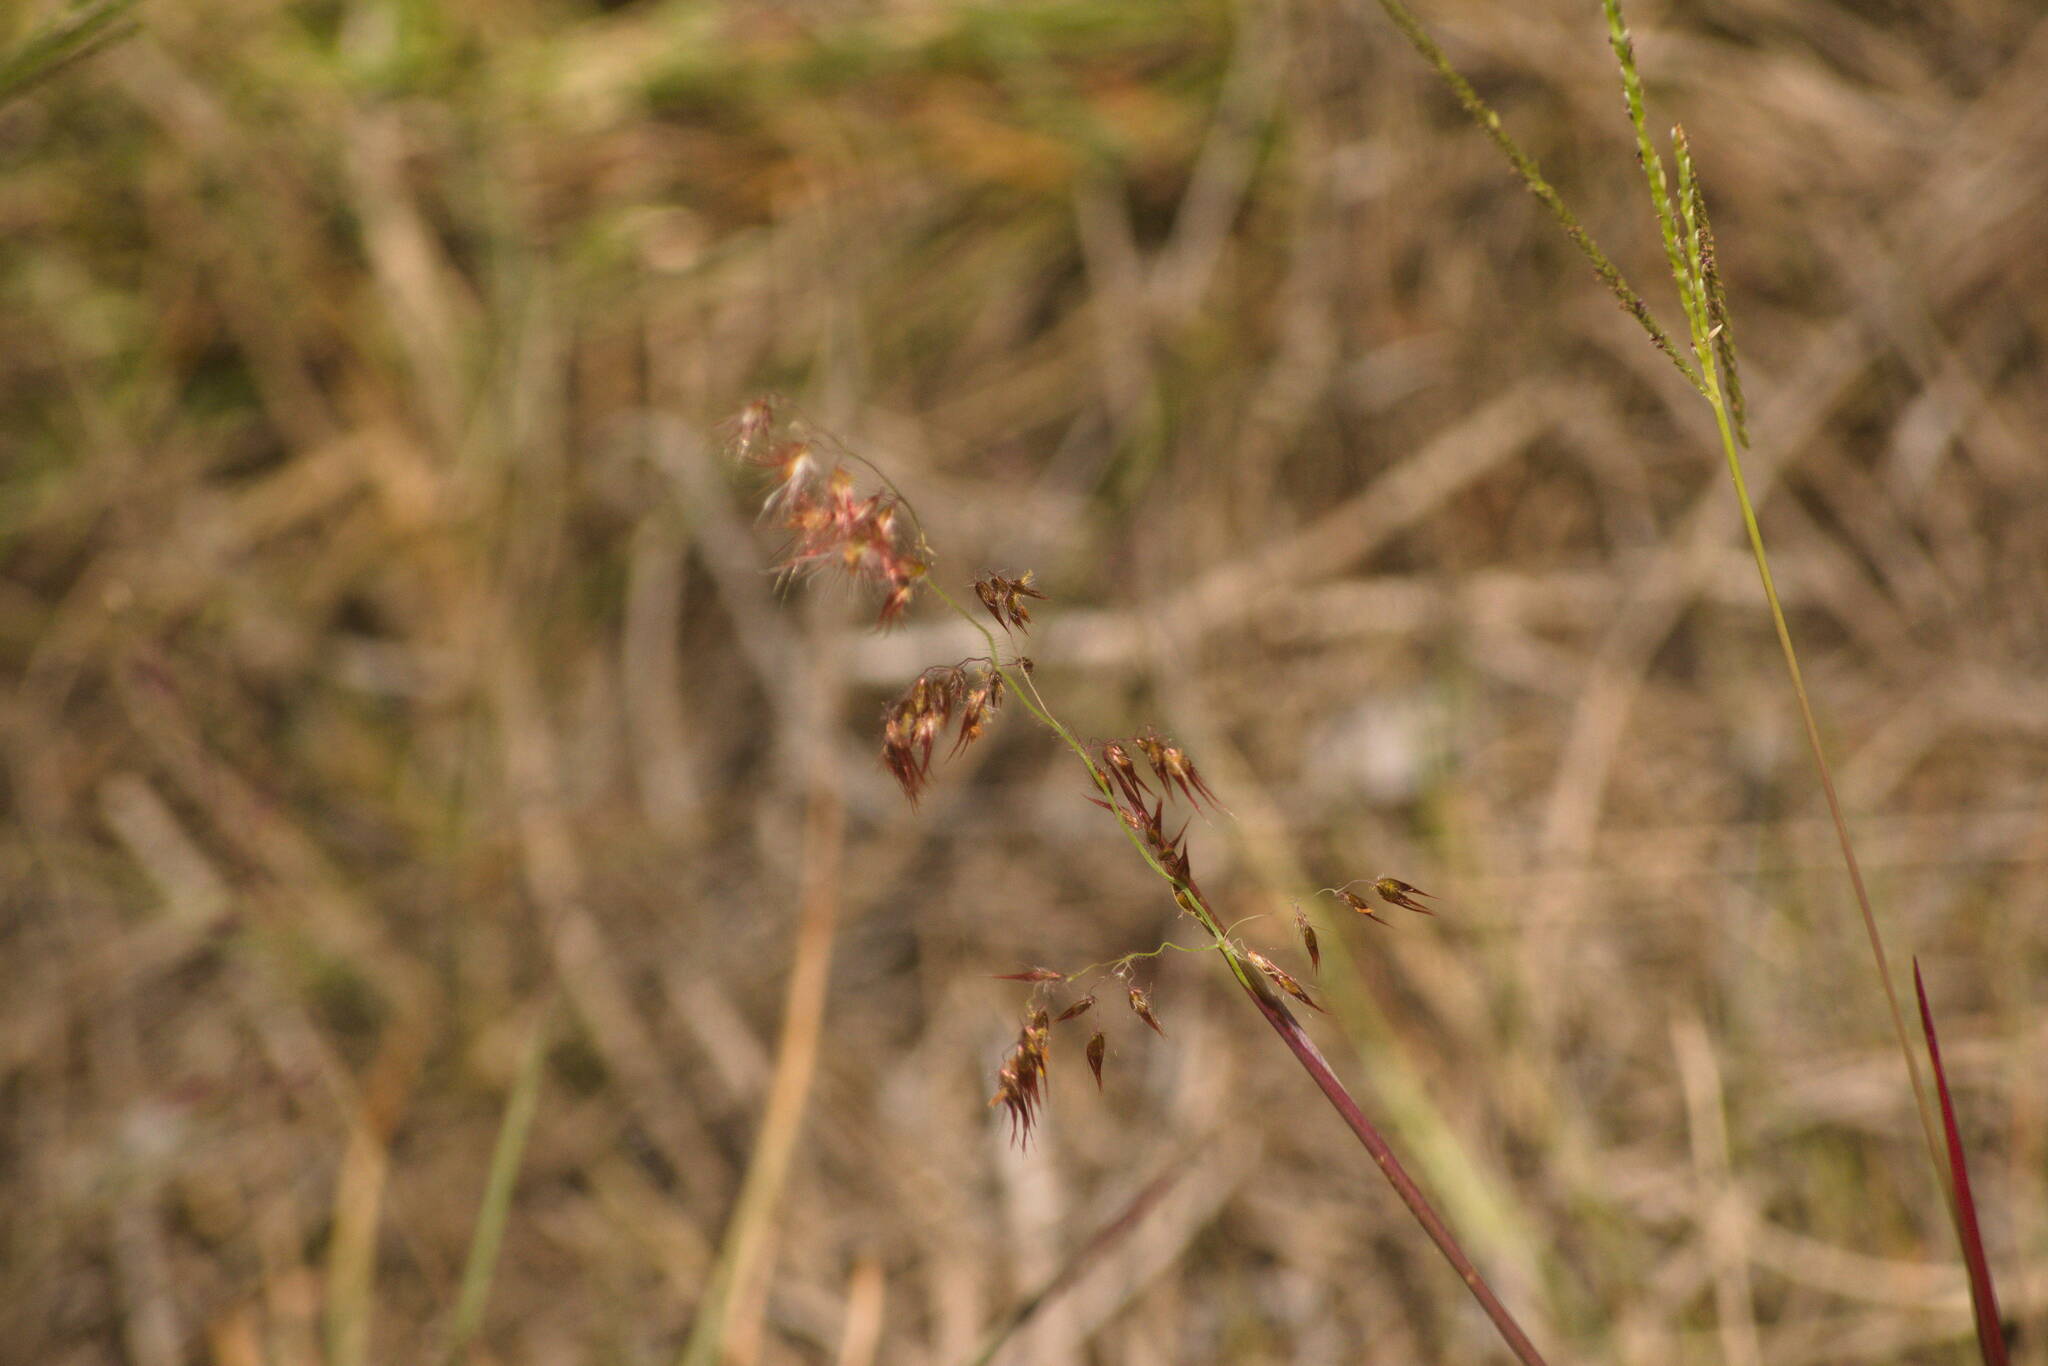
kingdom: Plantae
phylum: Tracheophyta
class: Liliopsida
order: Poales
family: Poaceae
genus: Melinis
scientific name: Melinis repens
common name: Rose natal grass
